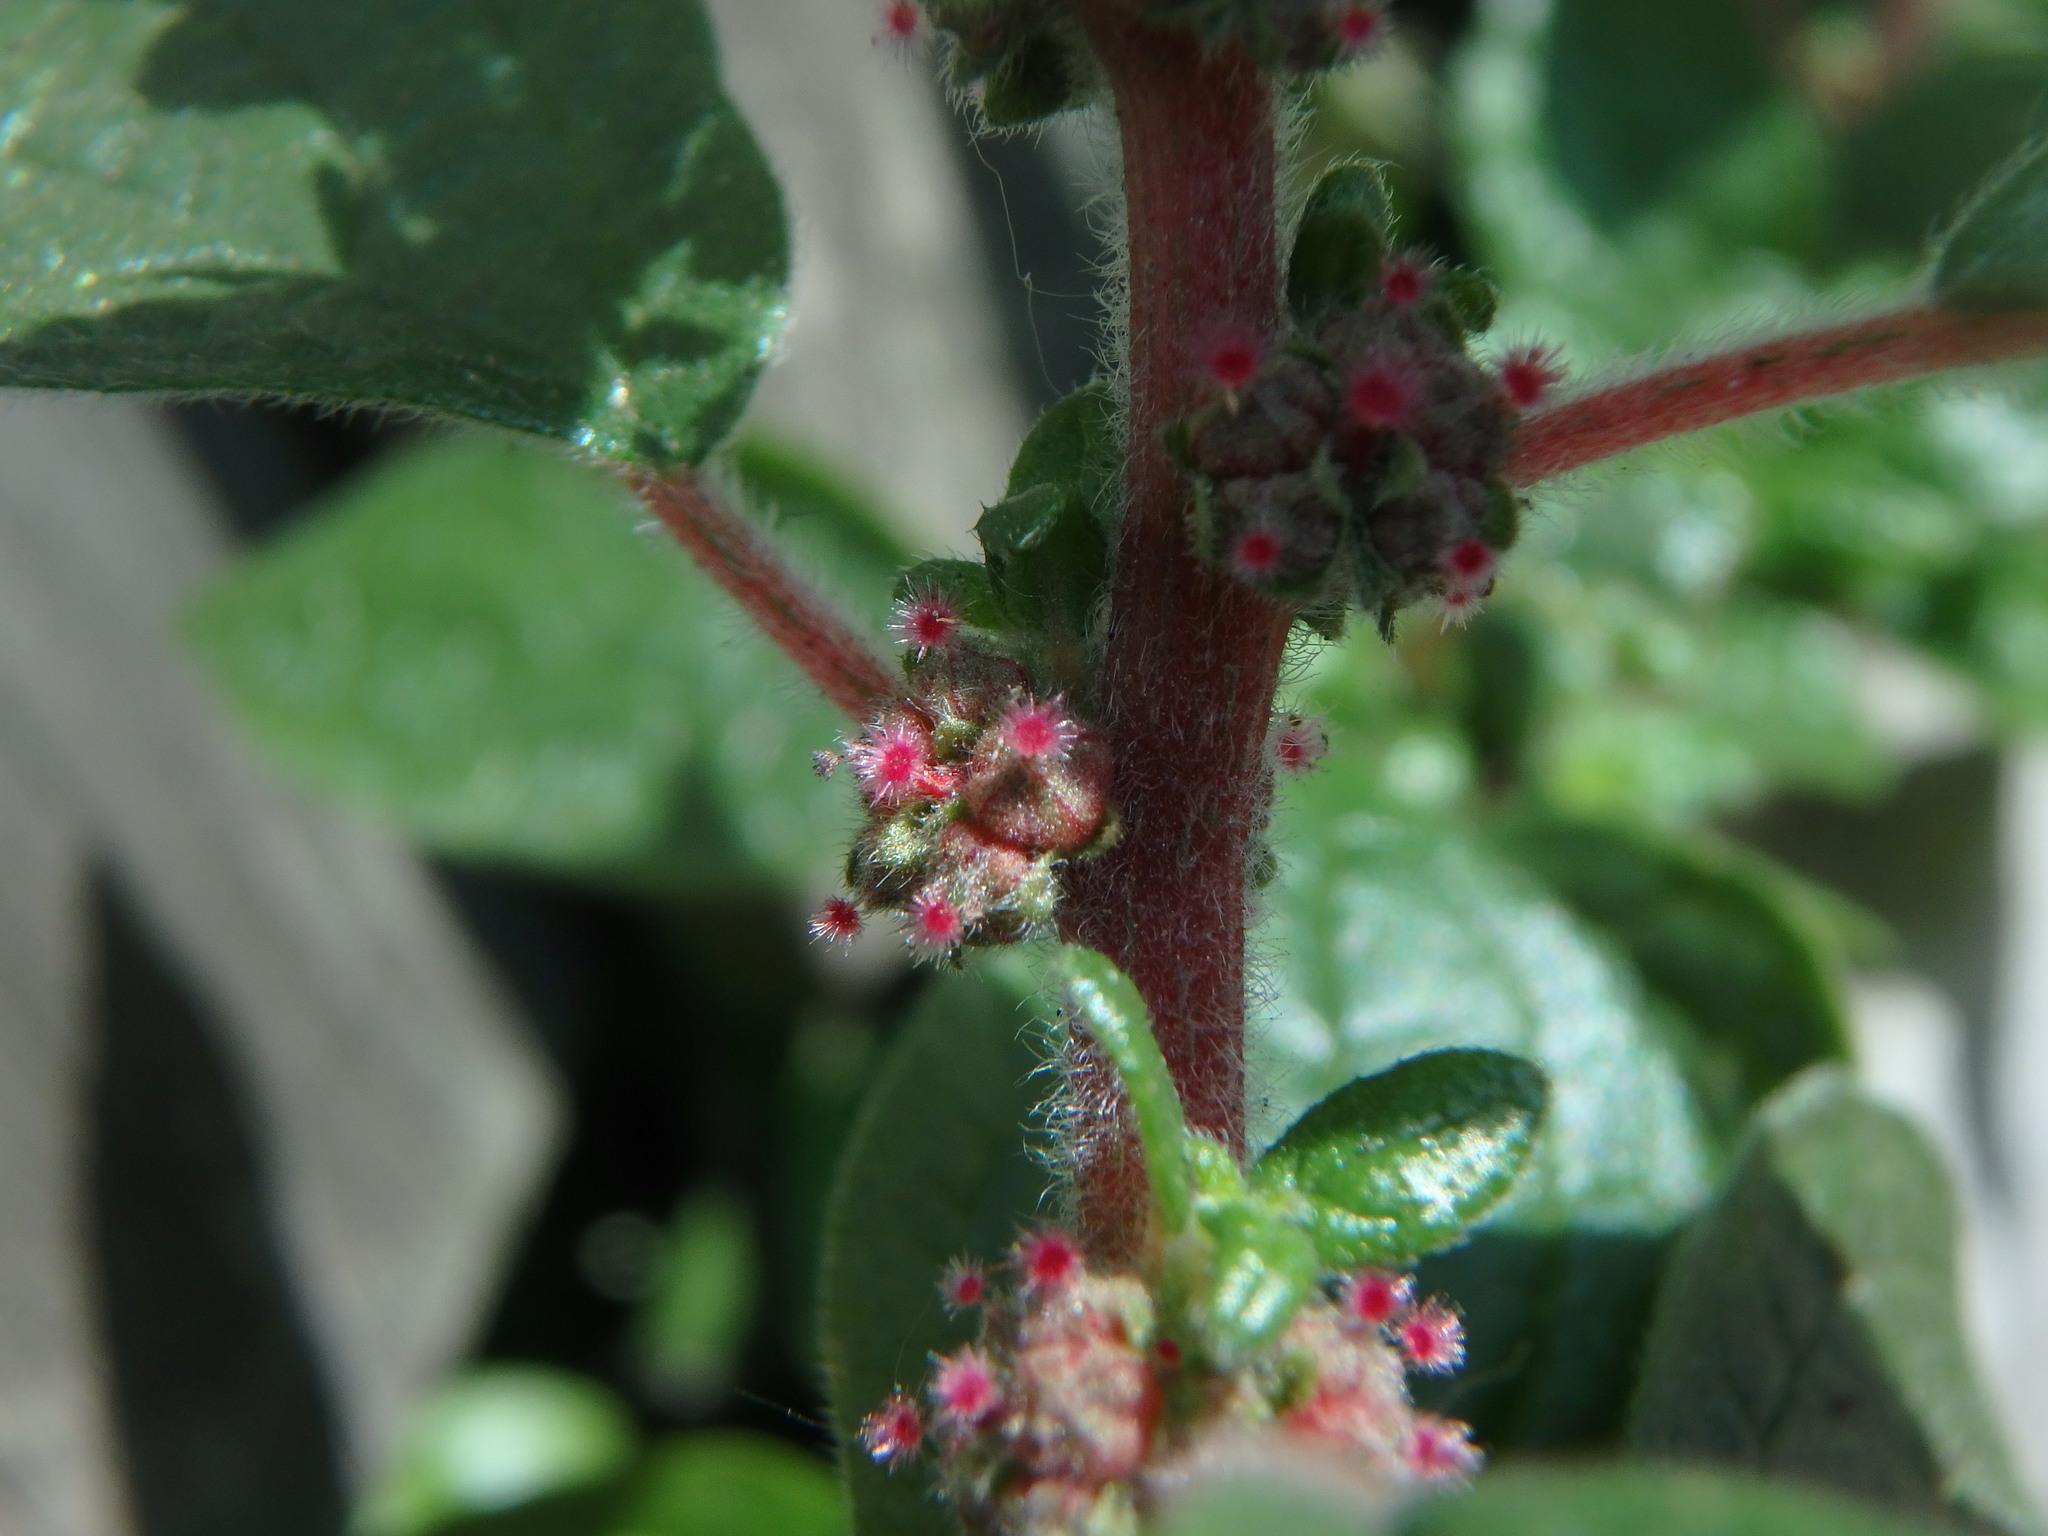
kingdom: Plantae
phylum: Tracheophyta
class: Magnoliopsida
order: Rosales
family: Urticaceae
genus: Parietaria
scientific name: Parietaria judaica
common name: Pellitory-of-the-wall
